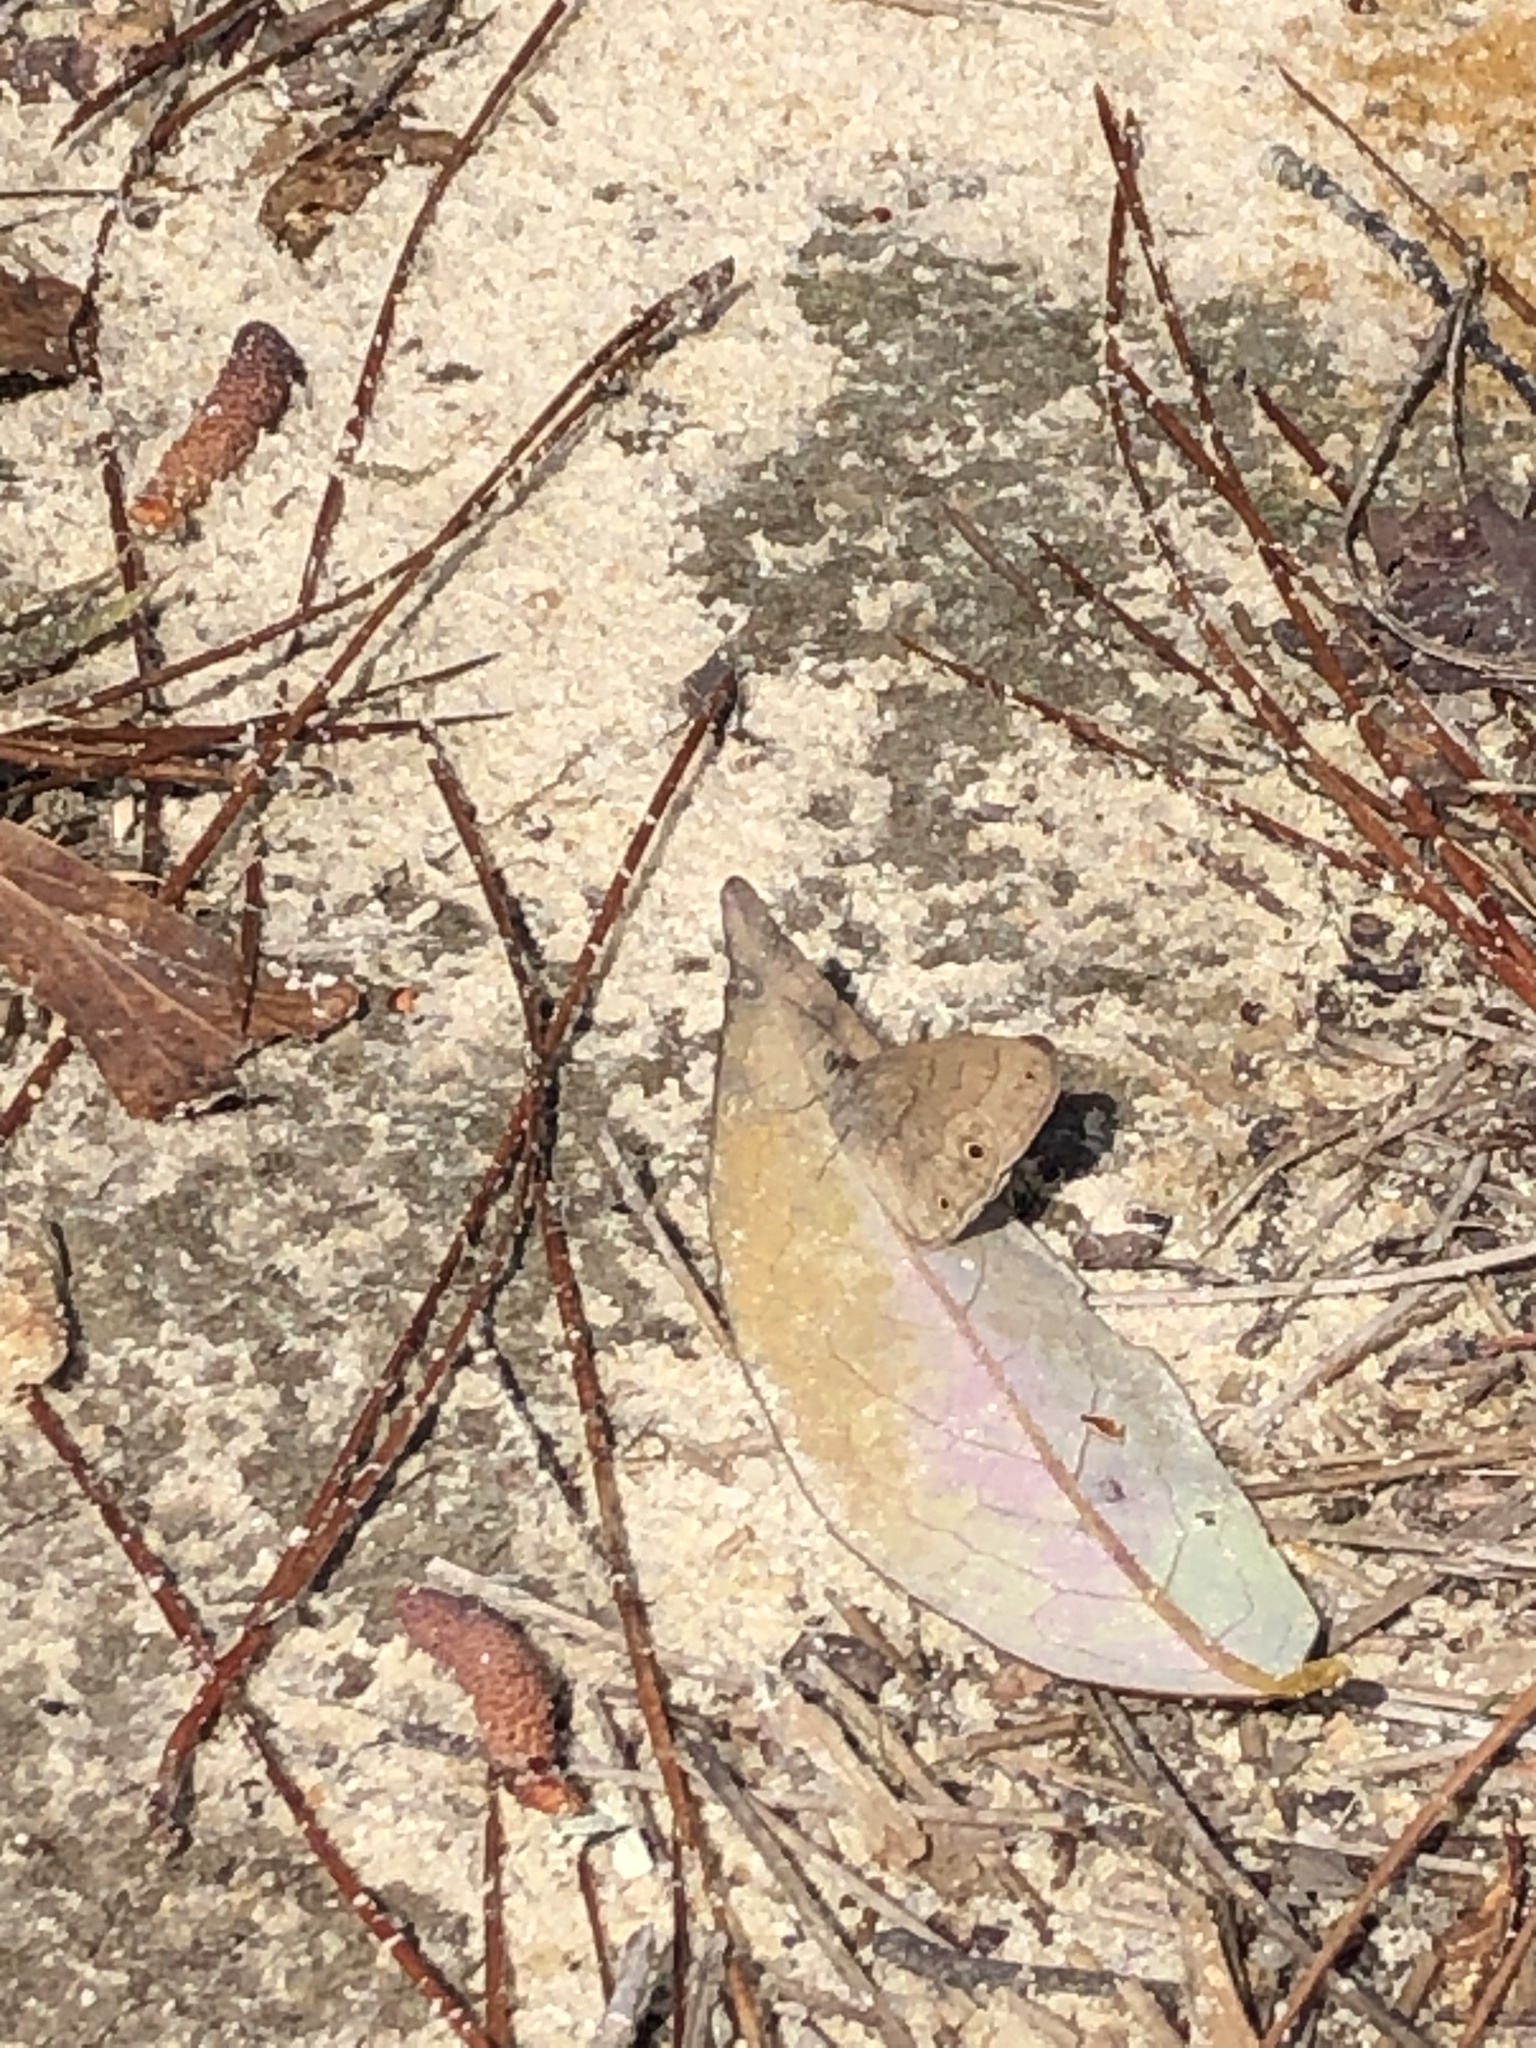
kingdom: Animalia
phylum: Arthropoda
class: Insecta
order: Lepidoptera
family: Nymphalidae
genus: Hermeuptychia
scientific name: Hermeuptychia hermes
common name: Hermes satyr
